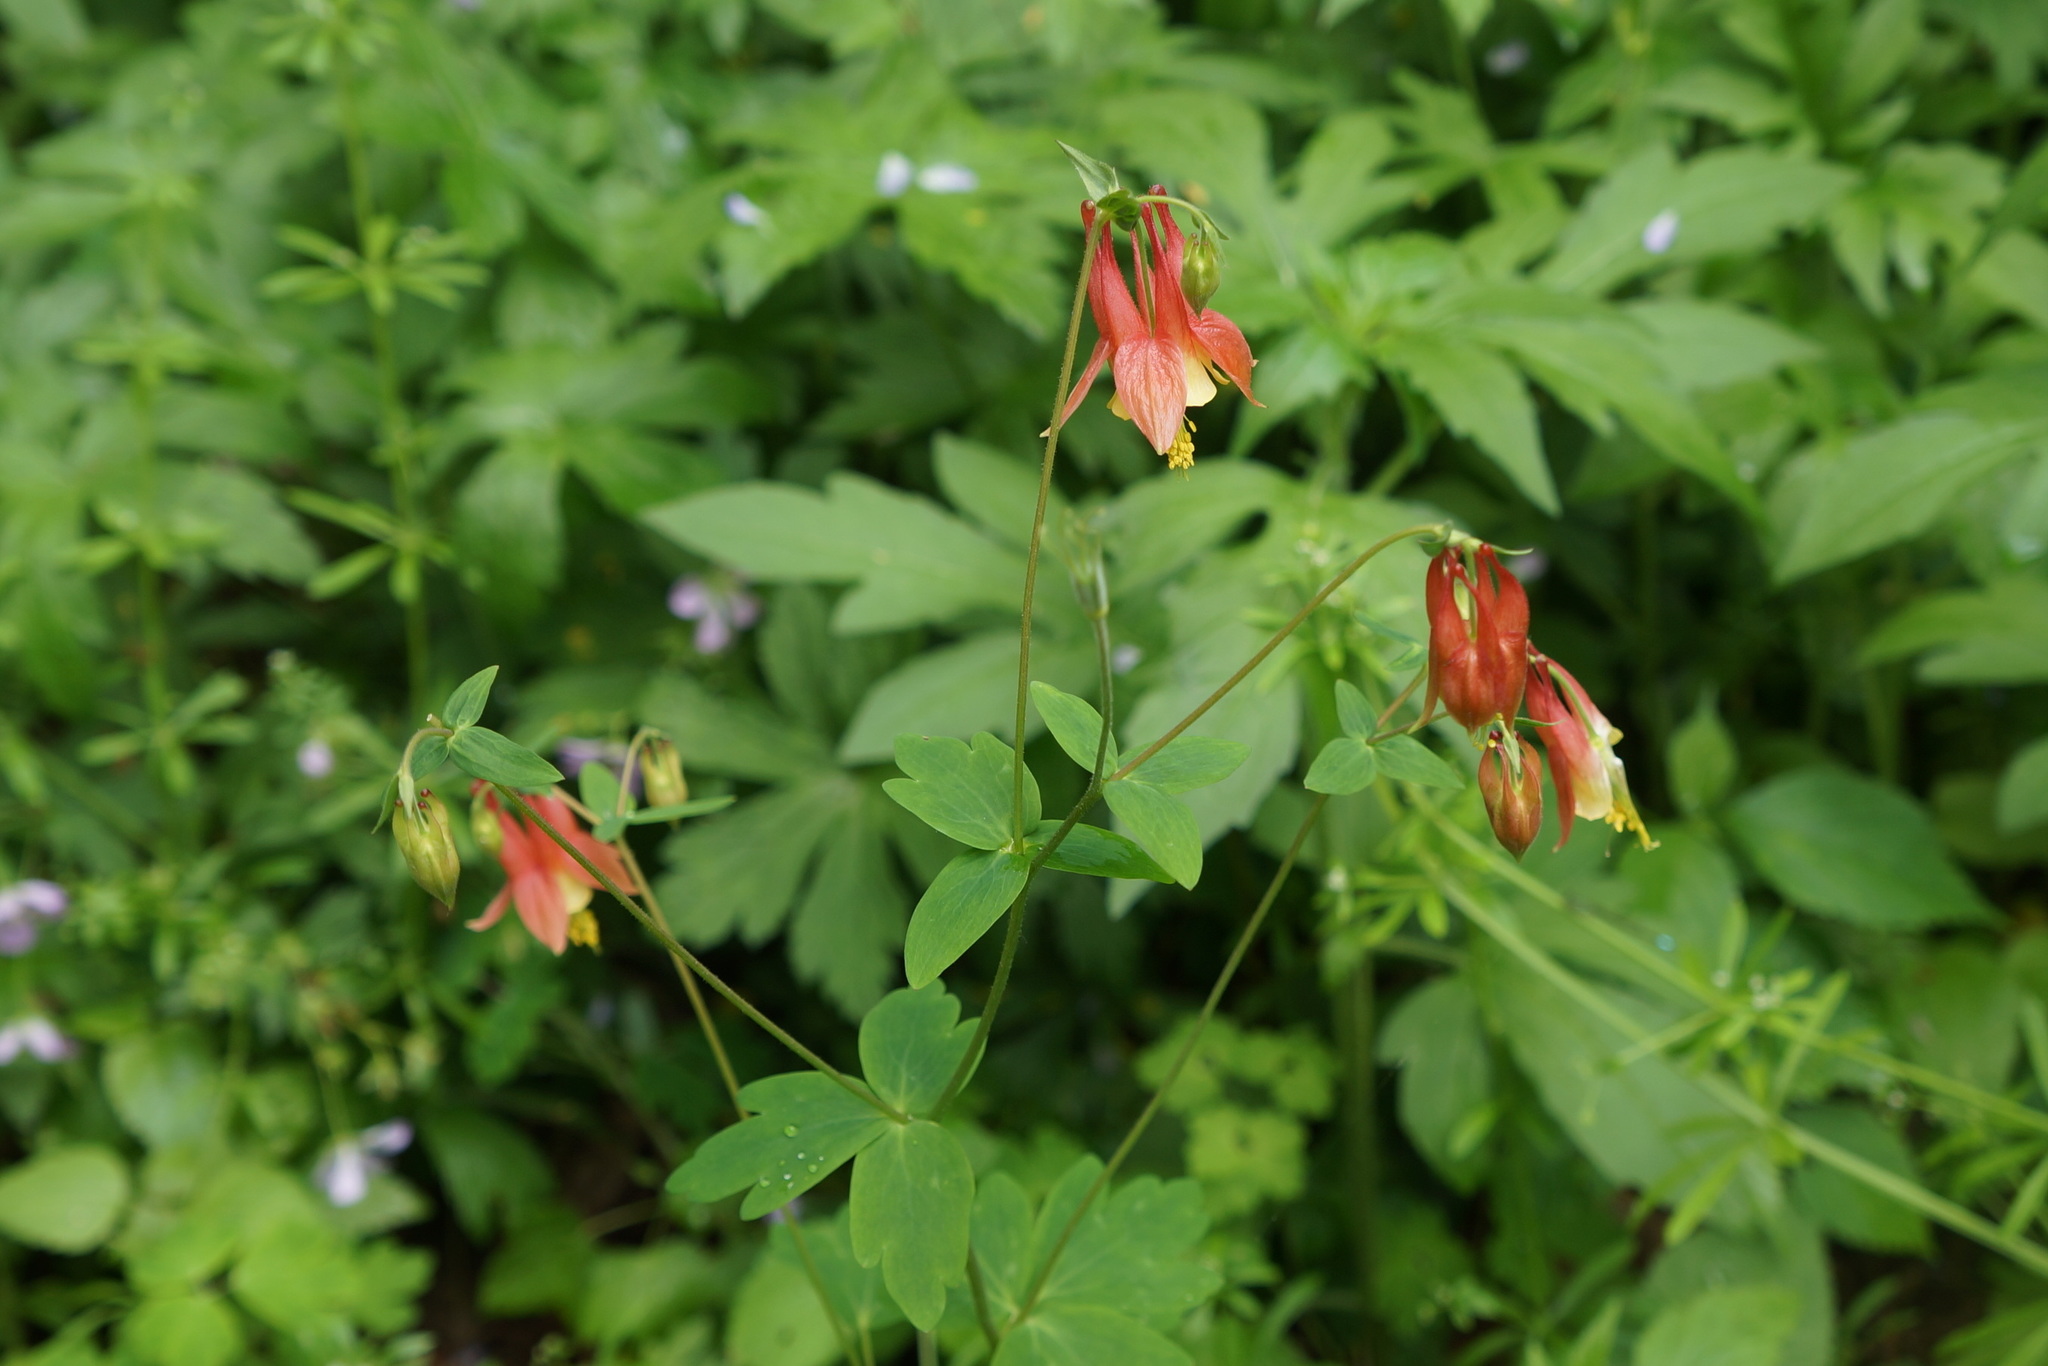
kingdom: Plantae
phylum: Tracheophyta
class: Magnoliopsida
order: Ranunculales
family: Ranunculaceae
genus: Aquilegia
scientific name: Aquilegia canadensis
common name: American columbine
